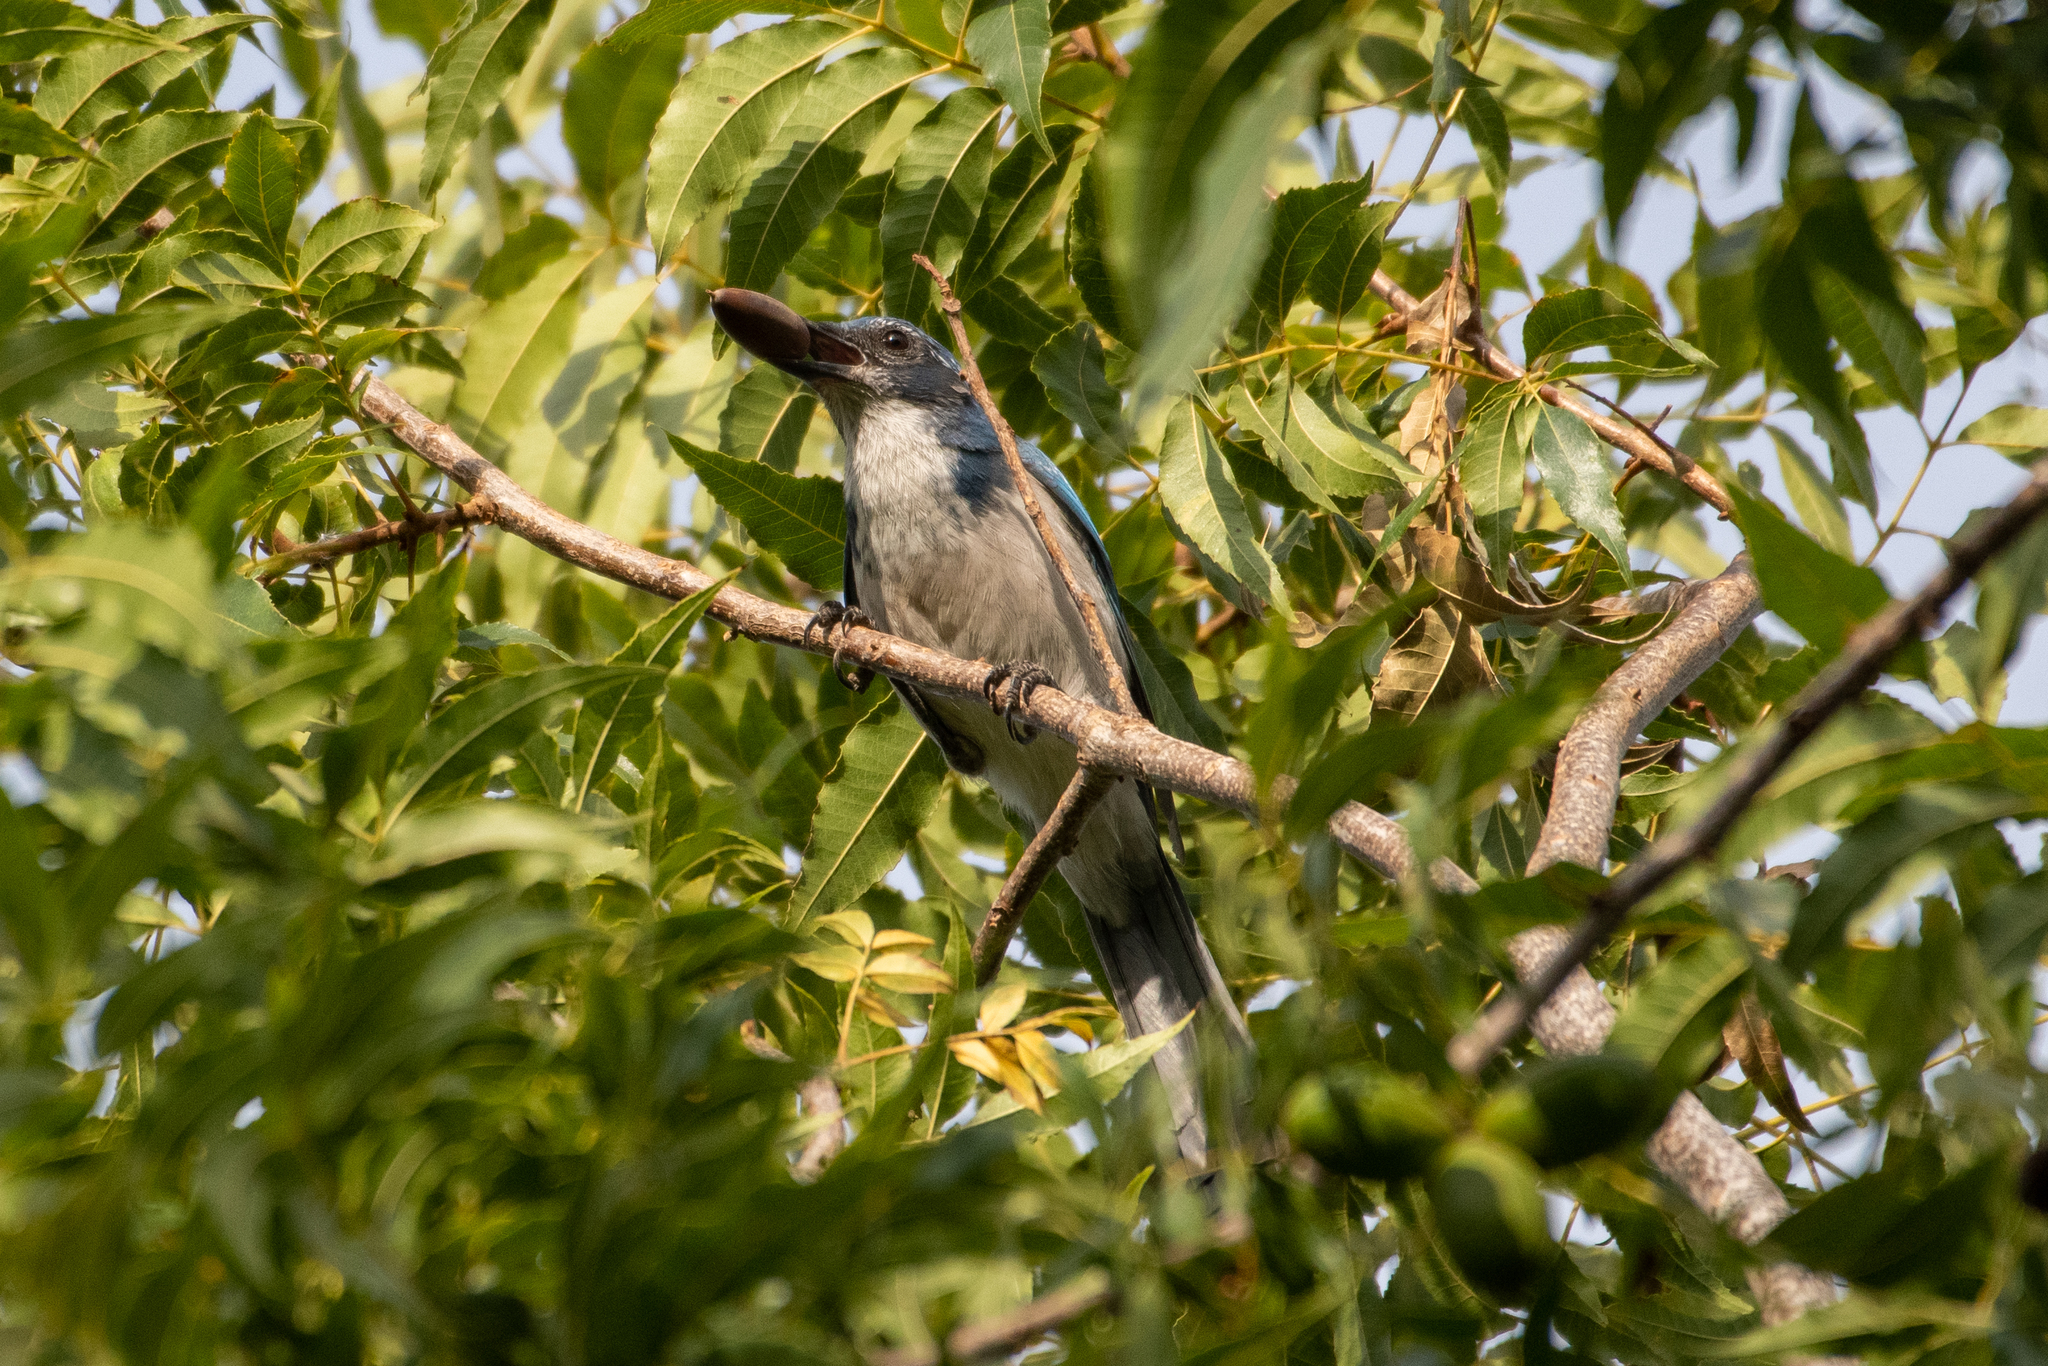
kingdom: Animalia
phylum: Chordata
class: Aves
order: Passeriformes
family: Corvidae
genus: Aphelocoma
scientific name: Aphelocoma californica
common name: California scrub-jay
